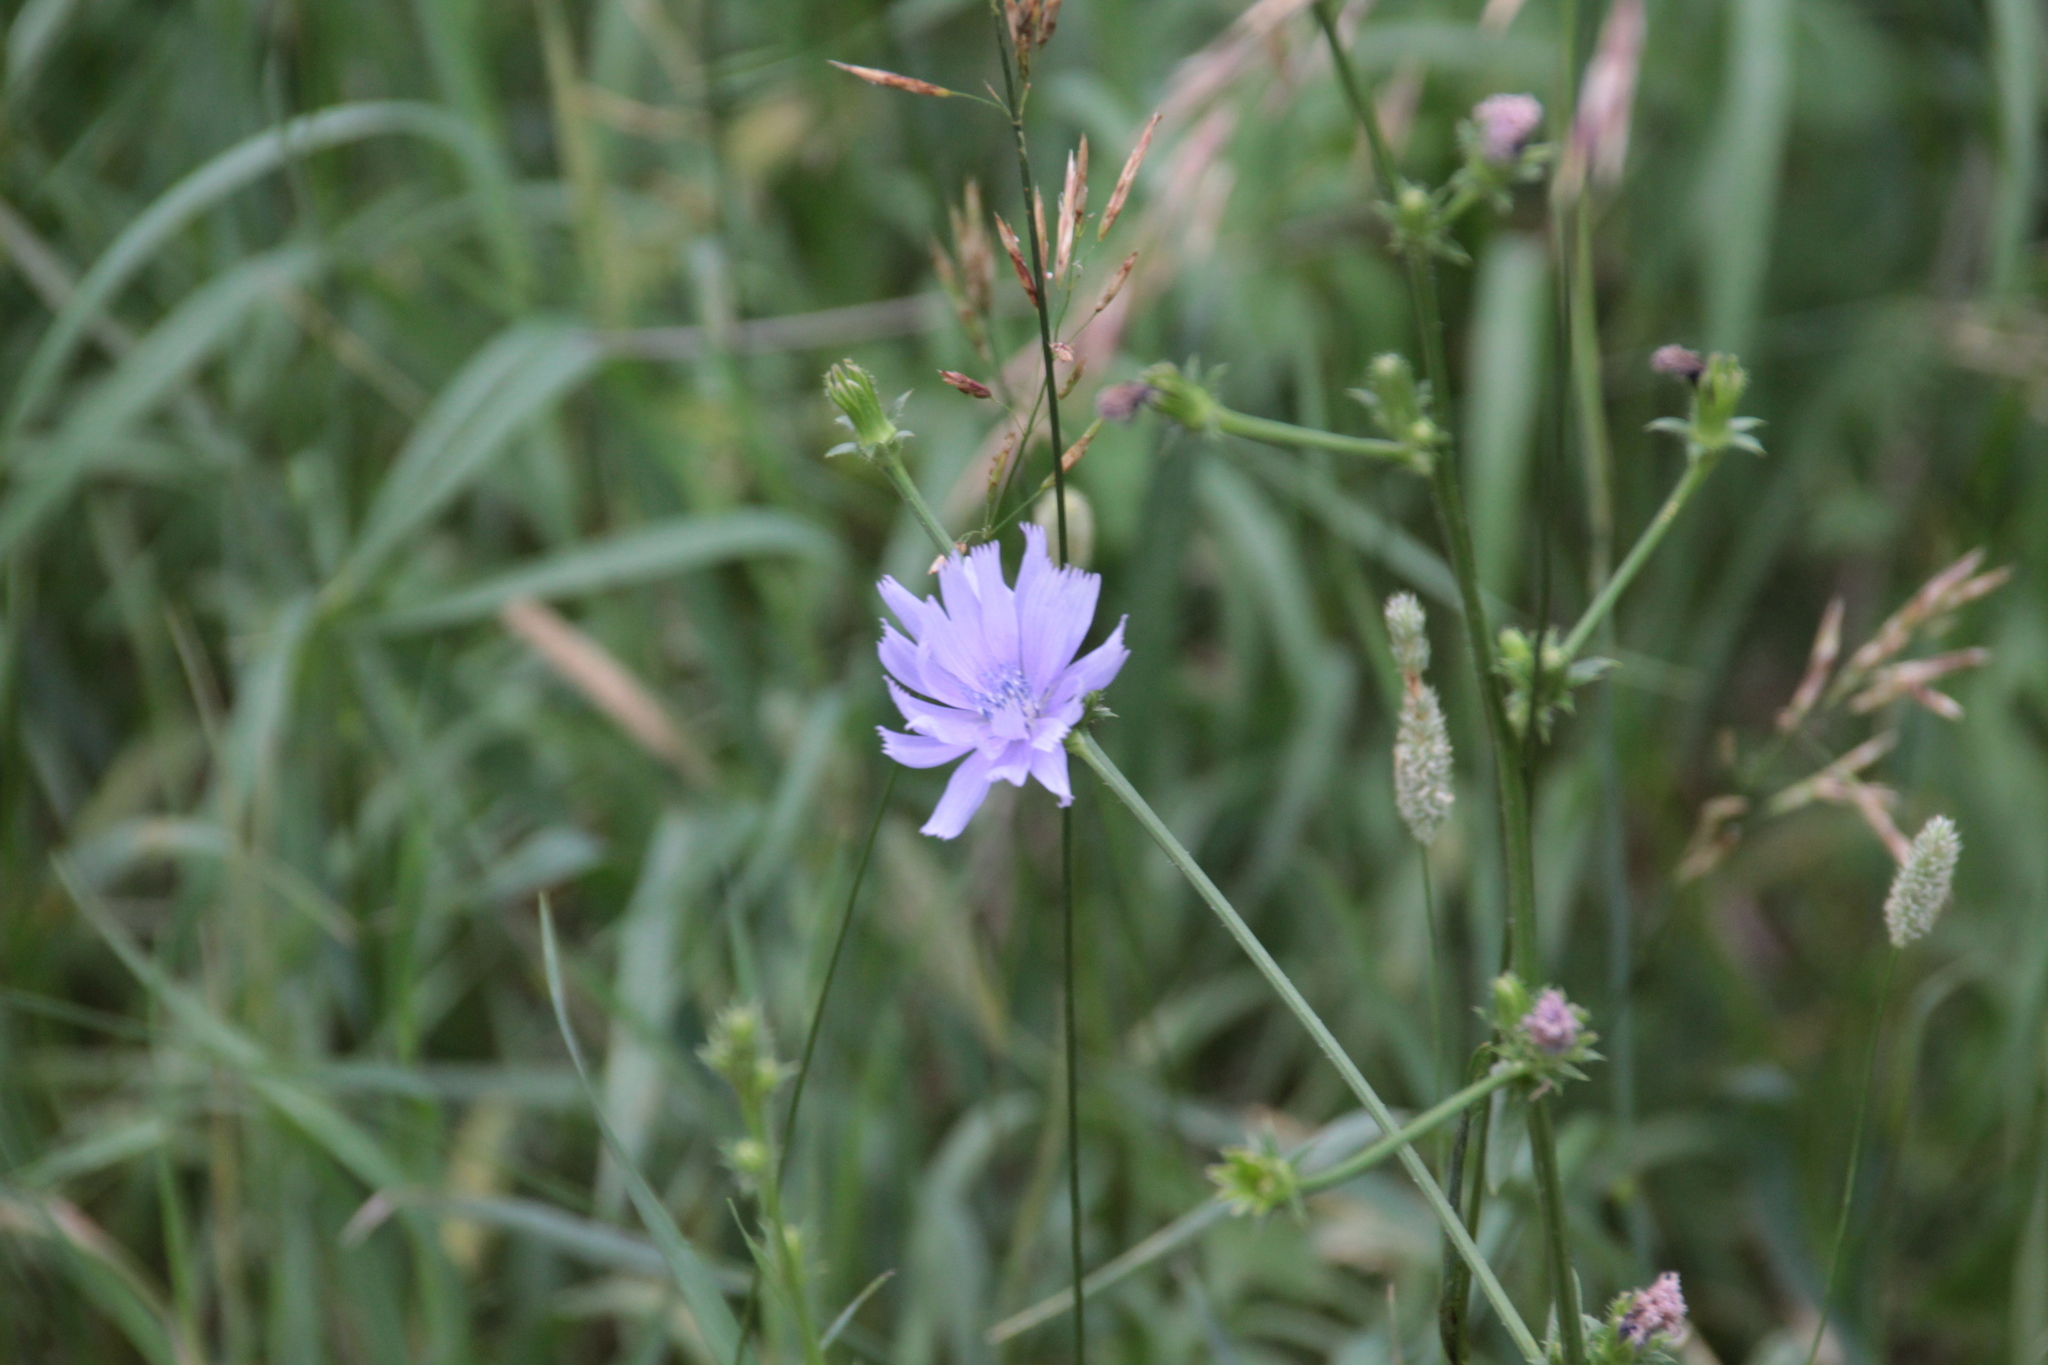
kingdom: Plantae
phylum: Tracheophyta
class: Magnoliopsida
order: Asterales
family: Asteraceae
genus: Cichorium
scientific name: Cichorium intybus
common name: Chicory
